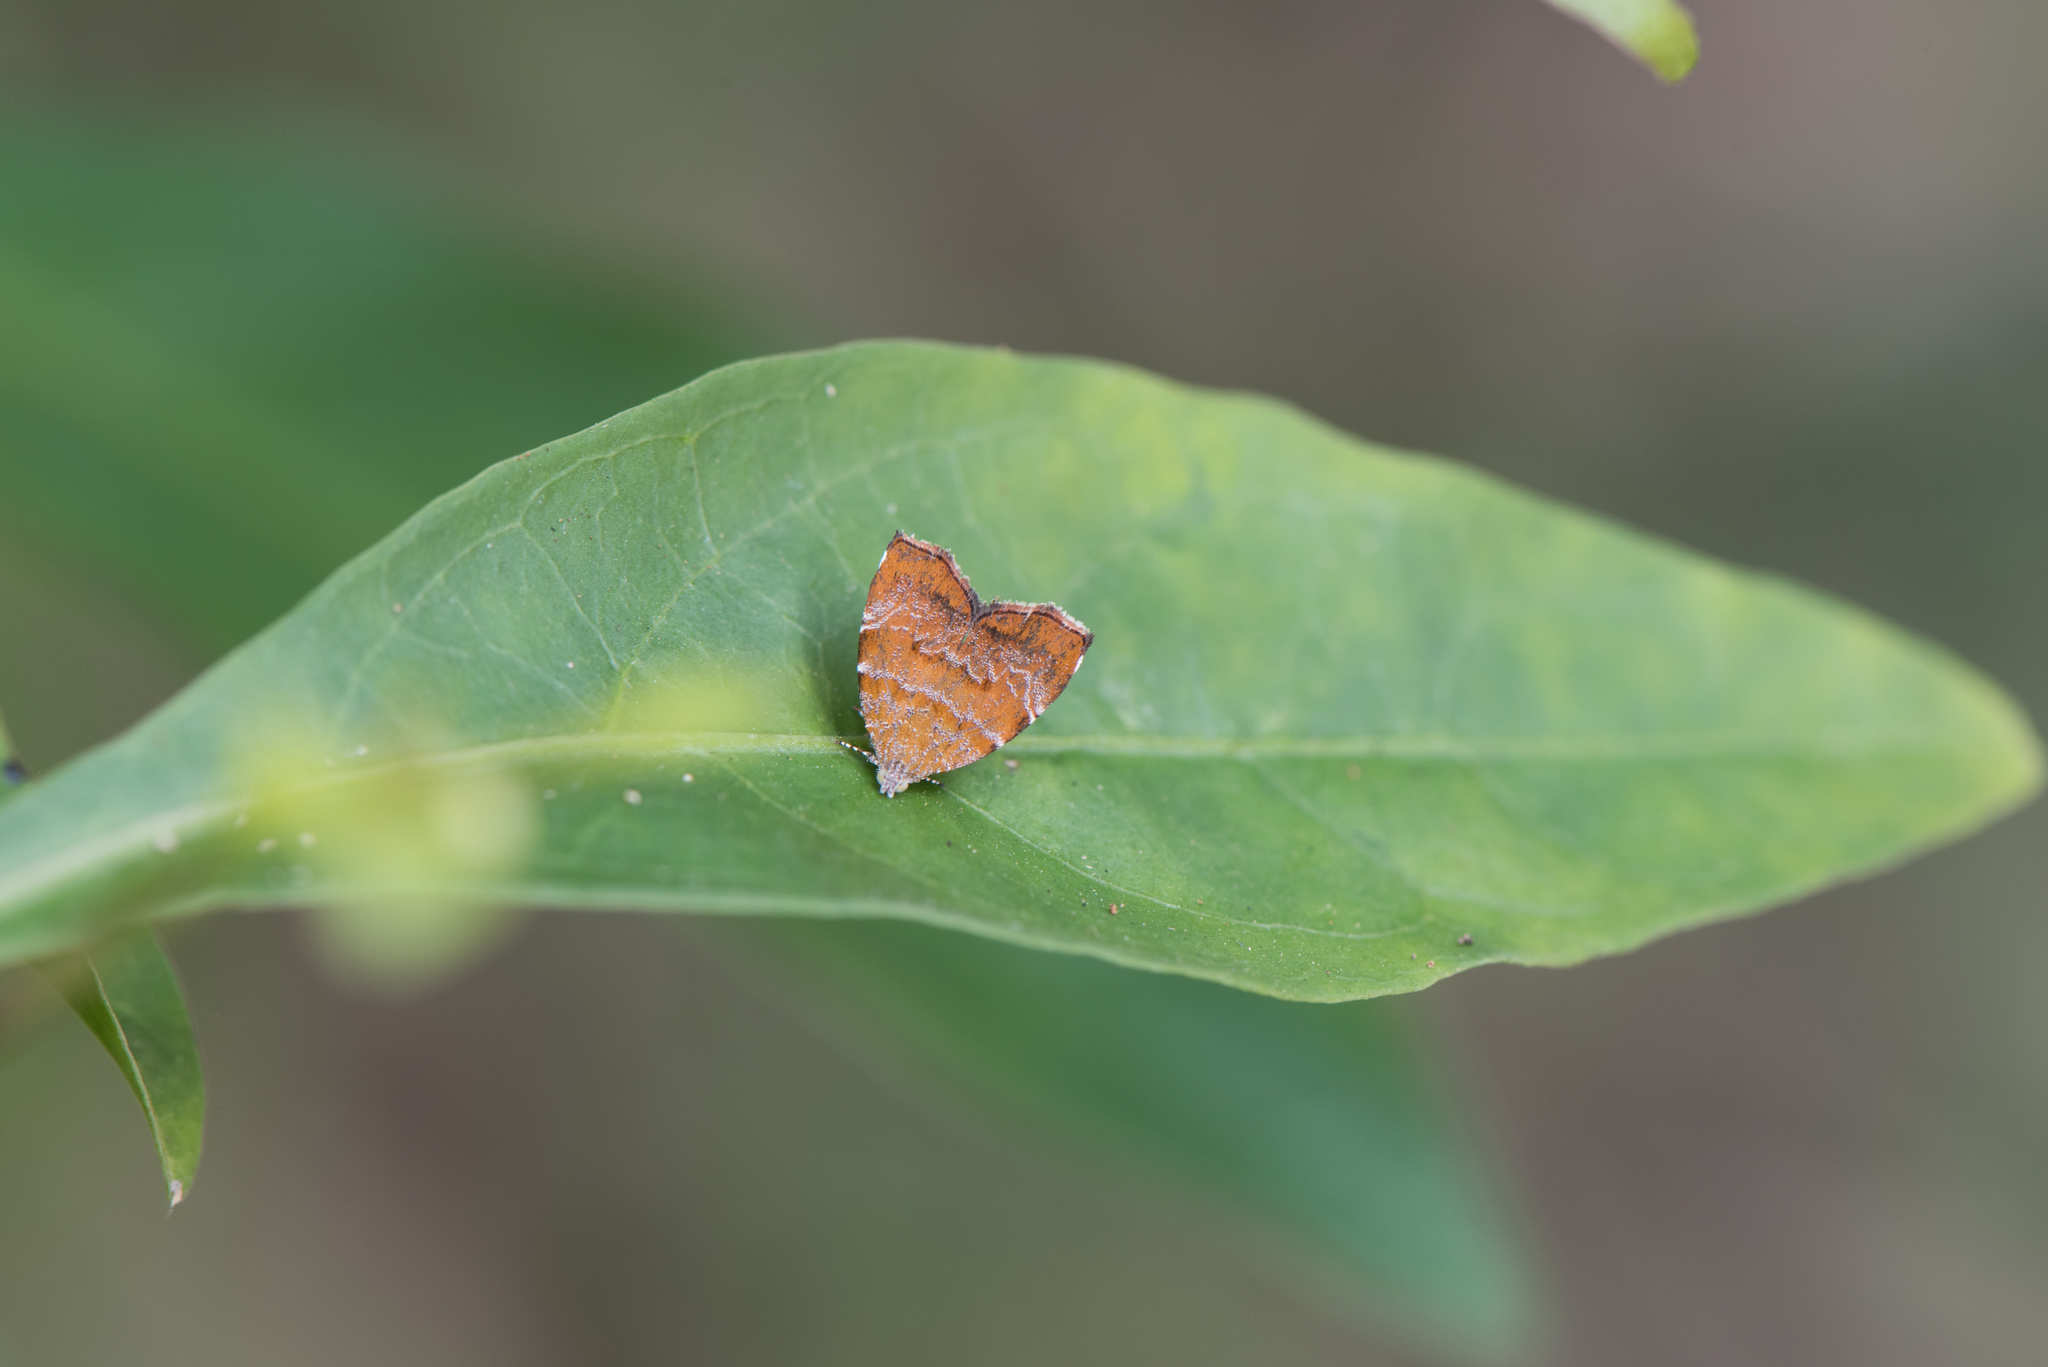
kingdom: Animalia
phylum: Arthropoda
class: Insecta
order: Lepidoptera
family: Choreutidae
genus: Anthophila
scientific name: Anthophila achyrodes
